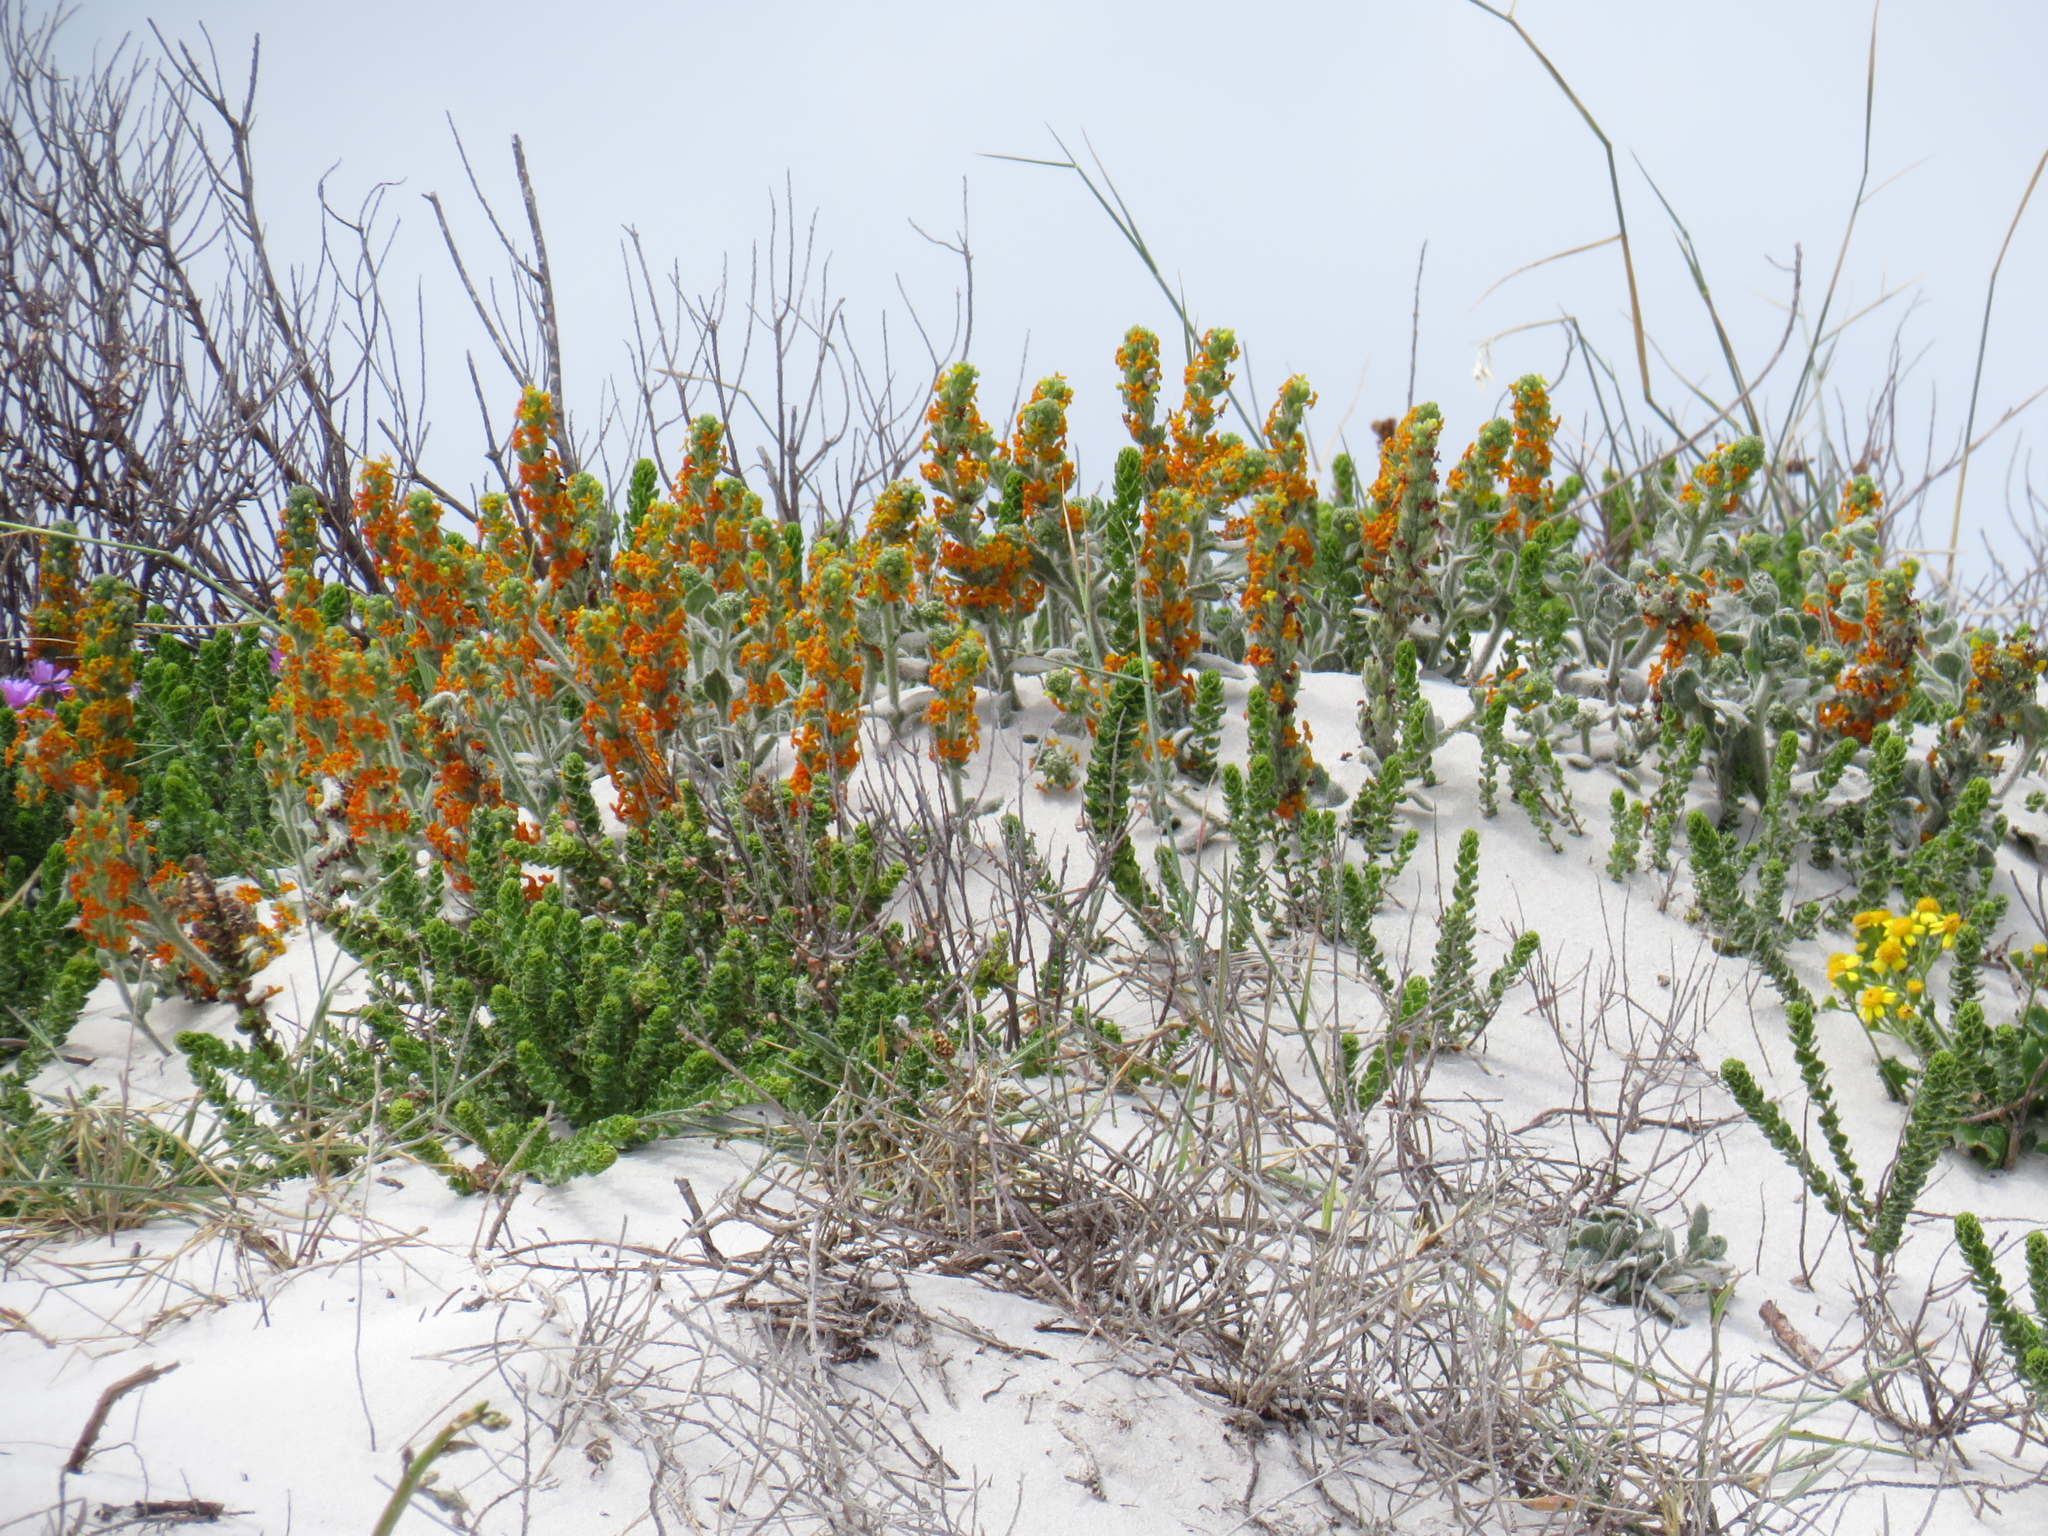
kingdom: Plantae
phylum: Tracheophyta
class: Magnoliopsida
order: Lamiales
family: Scrophulariaceae
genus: Manulea
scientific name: Manulea tomentosa
